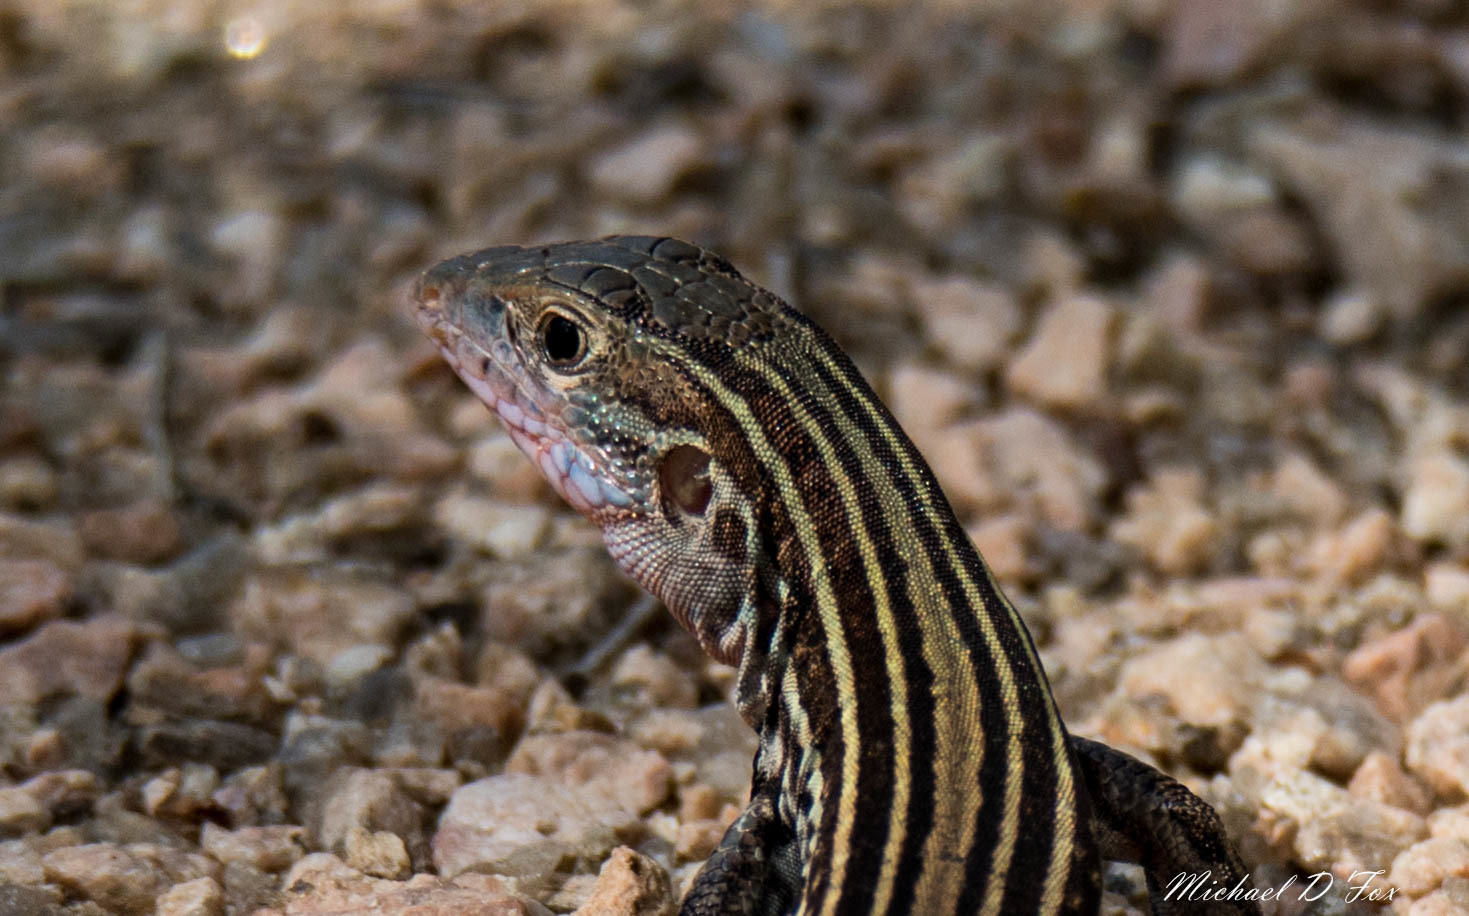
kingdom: Animalia
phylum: Chordata
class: Squamata
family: Teiidae
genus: Aspidoscelis
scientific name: Aspidoscelis gularis
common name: Eastern spotted whiptail
